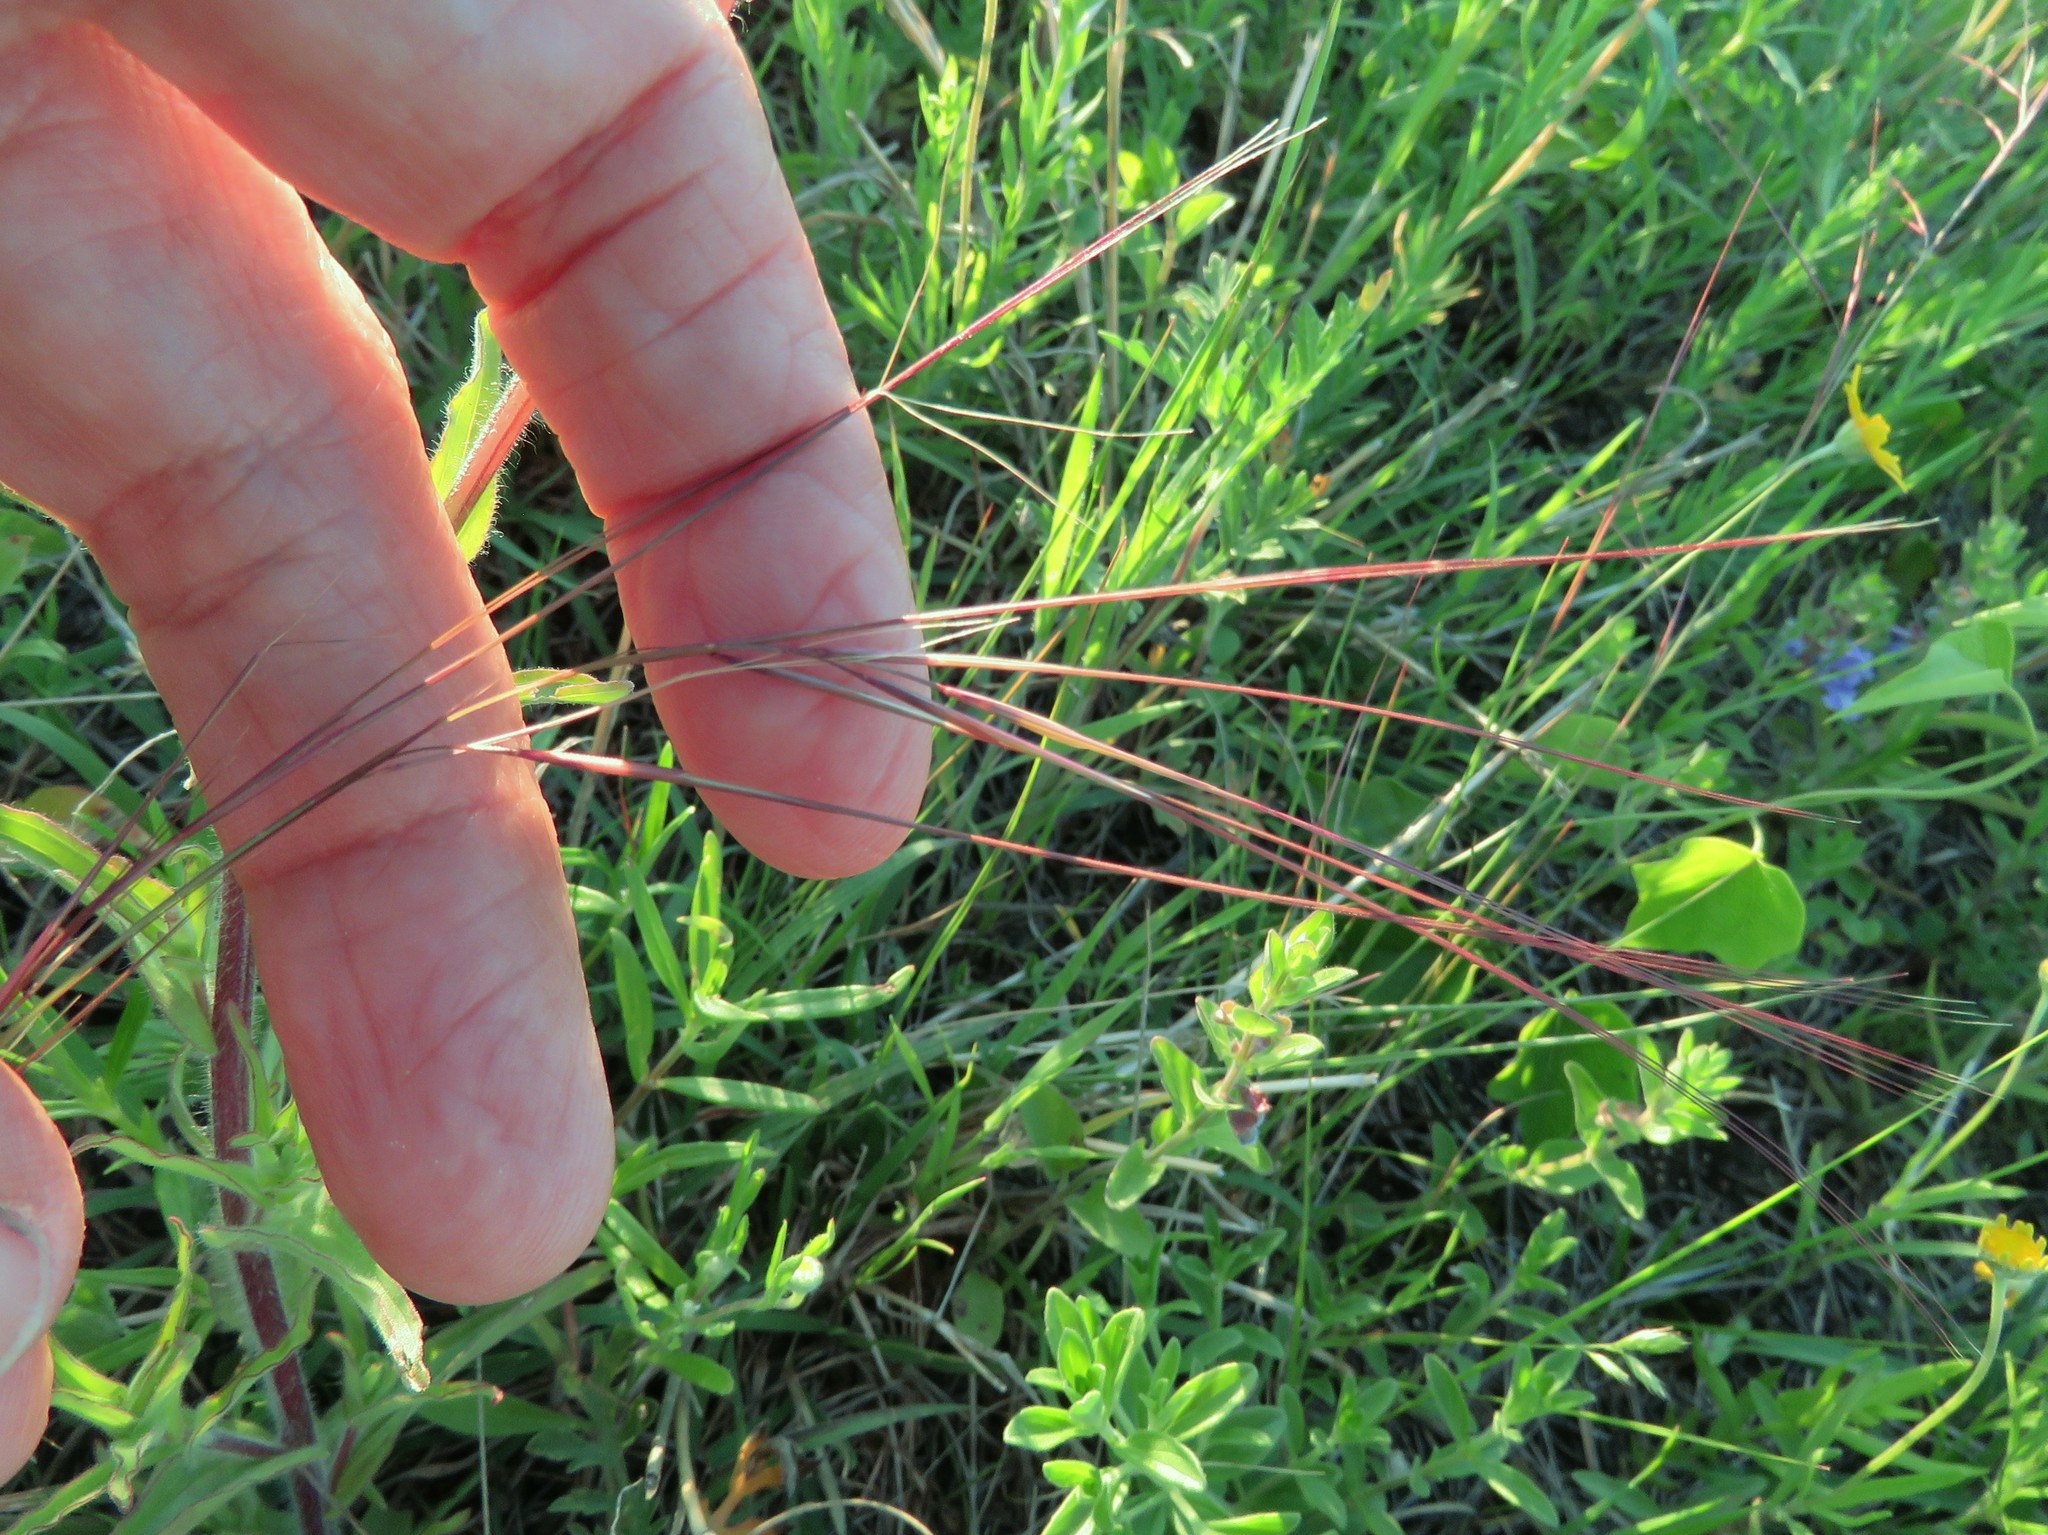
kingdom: Plantae
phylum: Tracheophyta
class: Liliopsida
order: Poales
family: Poaceae
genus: Nassella
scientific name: Nassella leucotricha
